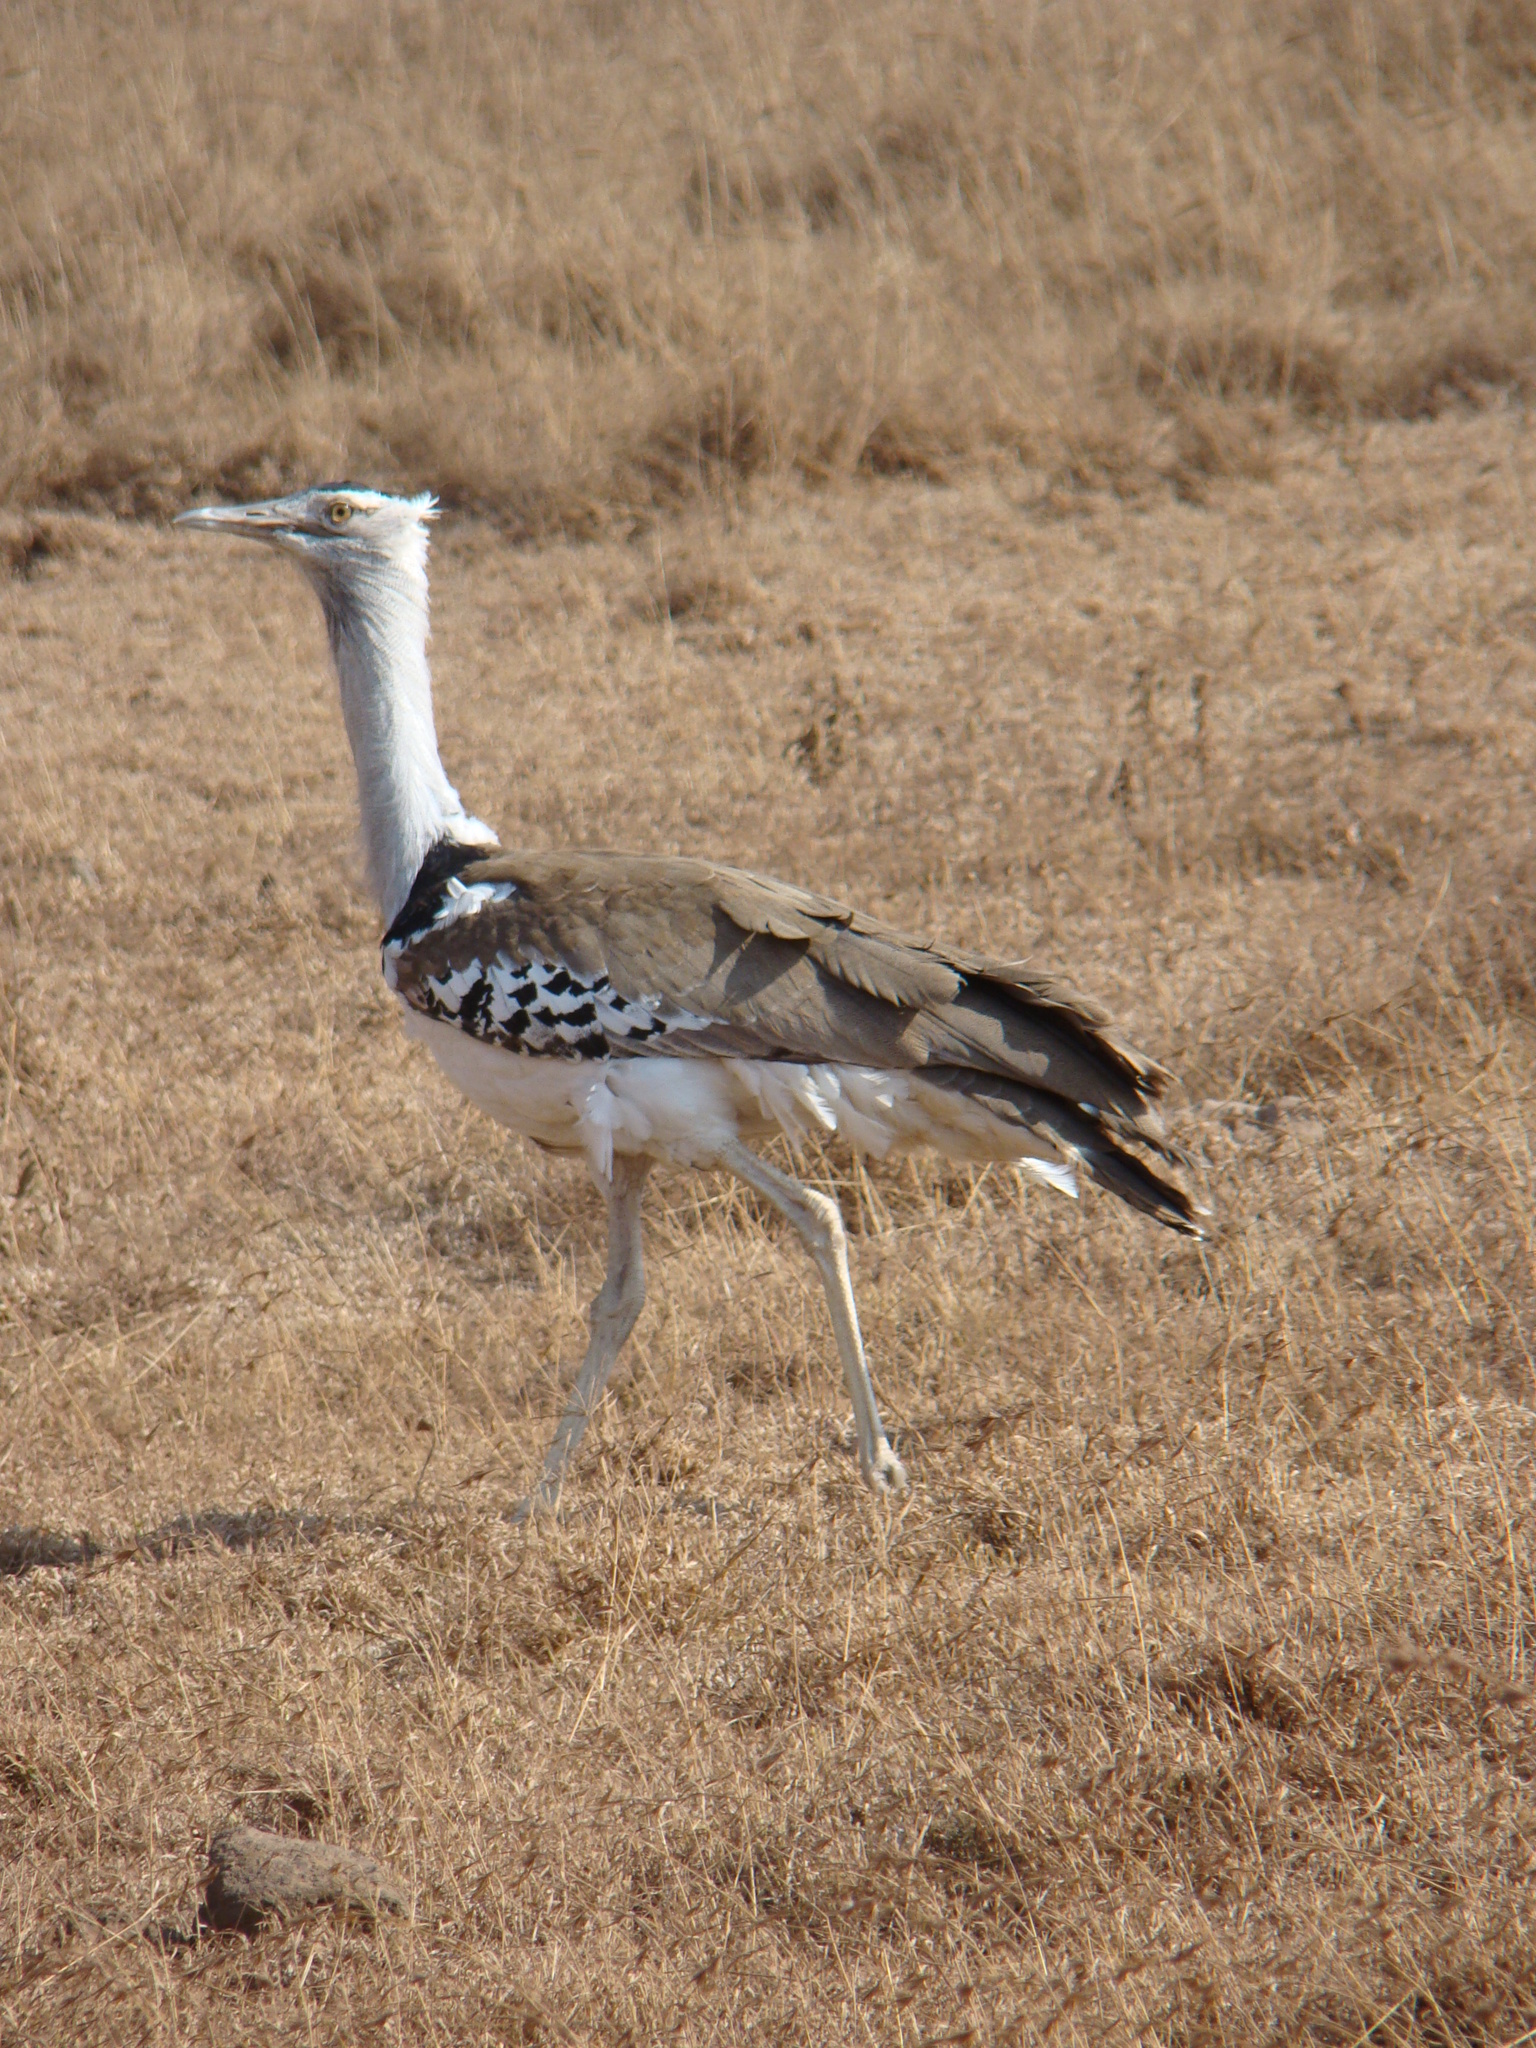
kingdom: Animalia
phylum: Chordata
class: Aves
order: Otidiformes
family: Otididae
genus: Ardeotis
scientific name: Ardeotis kori
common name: Kori bustard
